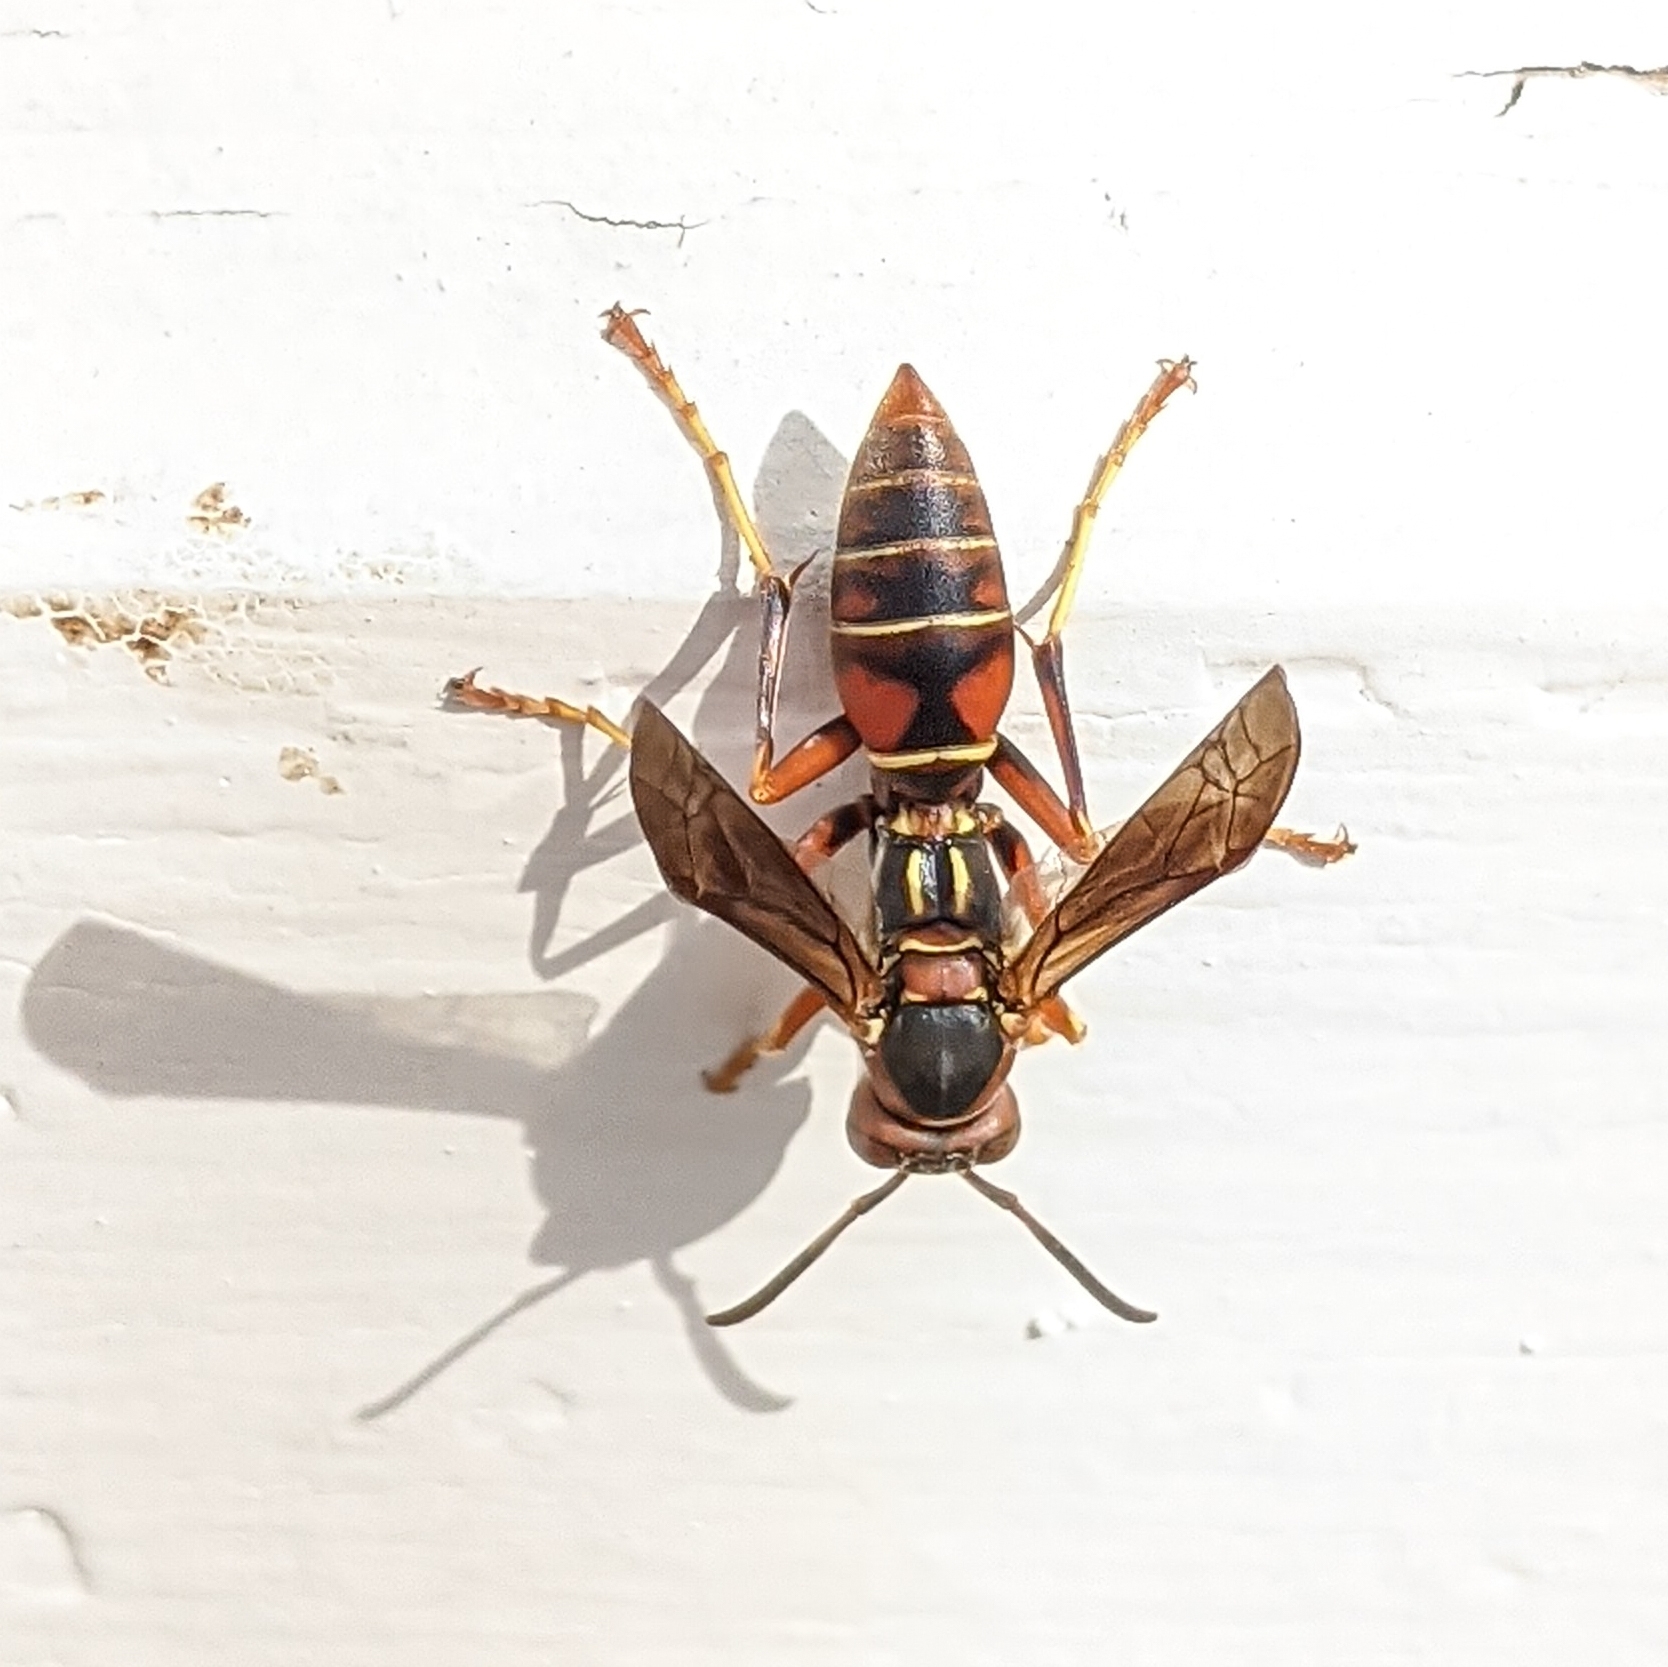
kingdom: Animalia
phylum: Arthropoda
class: Insecta
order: Hymenoptera
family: Eumenidae
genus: Polistes
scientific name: Polistes fuscatus
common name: Dark paper wasp
